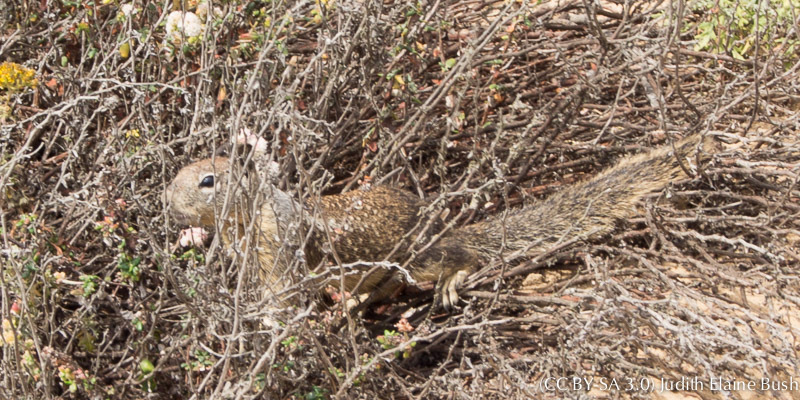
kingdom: Animalia
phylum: Chordata
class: Mammalia
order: Rodentia
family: Sciuridae
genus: Otospermophilus
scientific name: Otospermophilus beecheyi
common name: California ground squirrel
